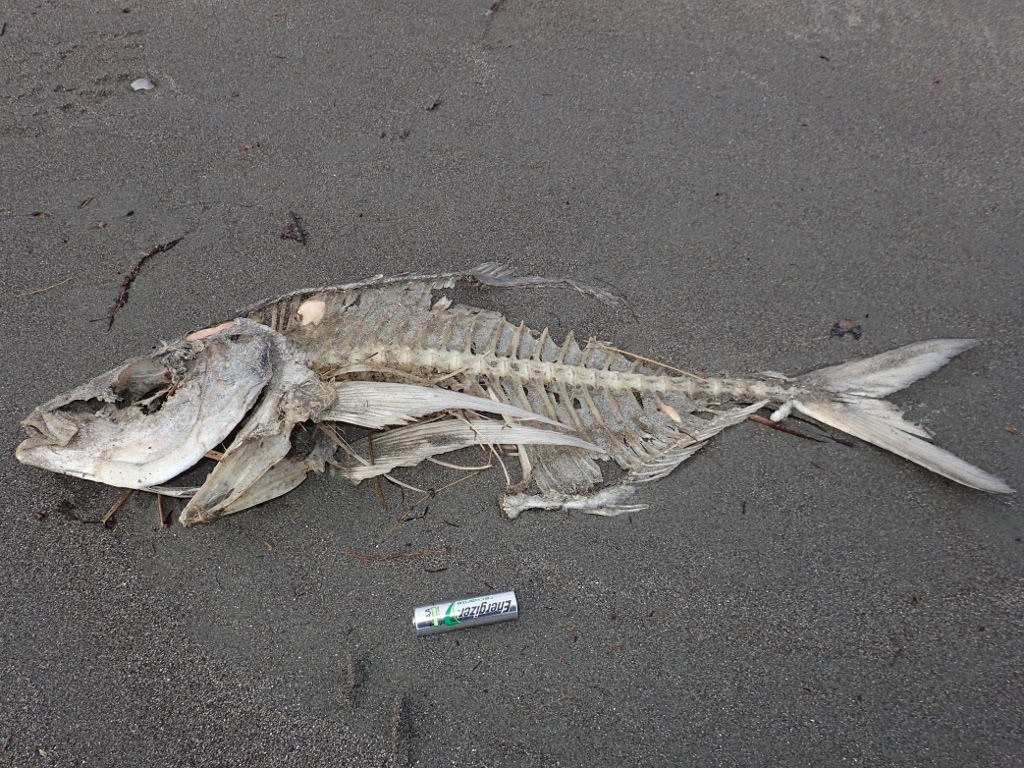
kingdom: Animalia
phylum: Chordata
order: Perciformes
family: Carangidae
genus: Pseudocaranx
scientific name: Pseudocaranx dentex
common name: White trevally
